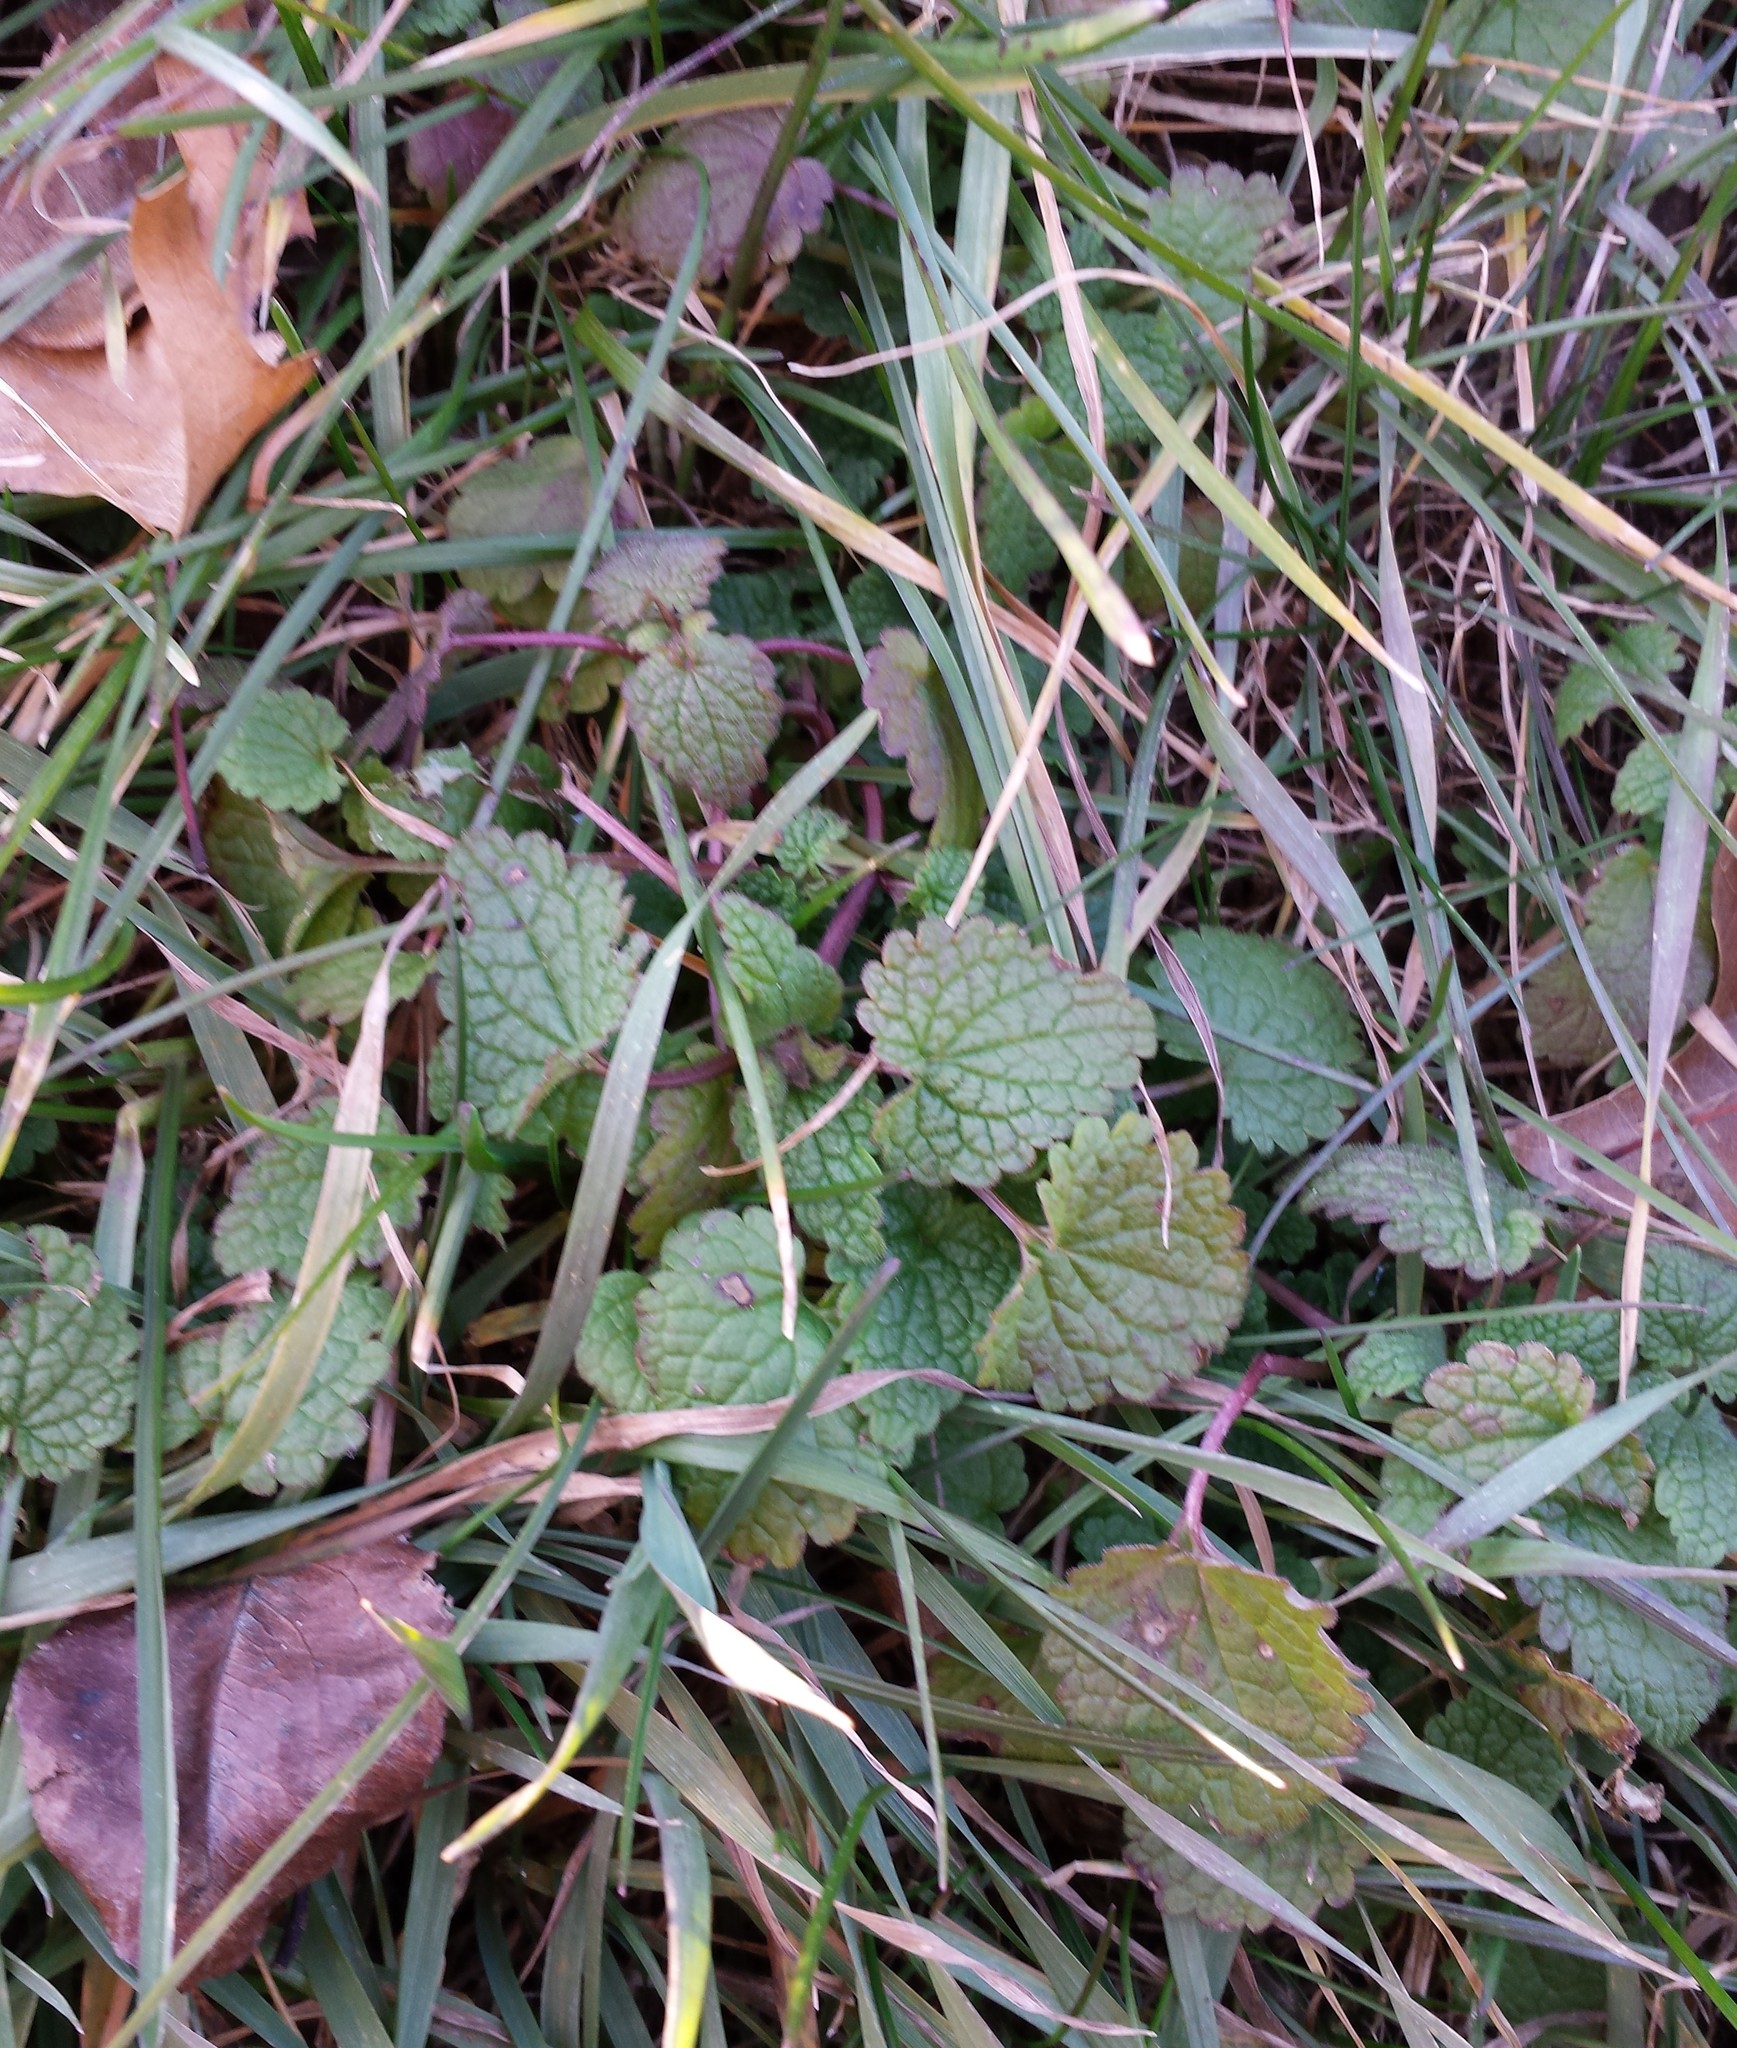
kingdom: Plantae
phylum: Tracheophyta
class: Magnoliopsida
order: Lamiales
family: Lamiaceae
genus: Lamium
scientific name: Lamium purpureum
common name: Red dead-nettle
